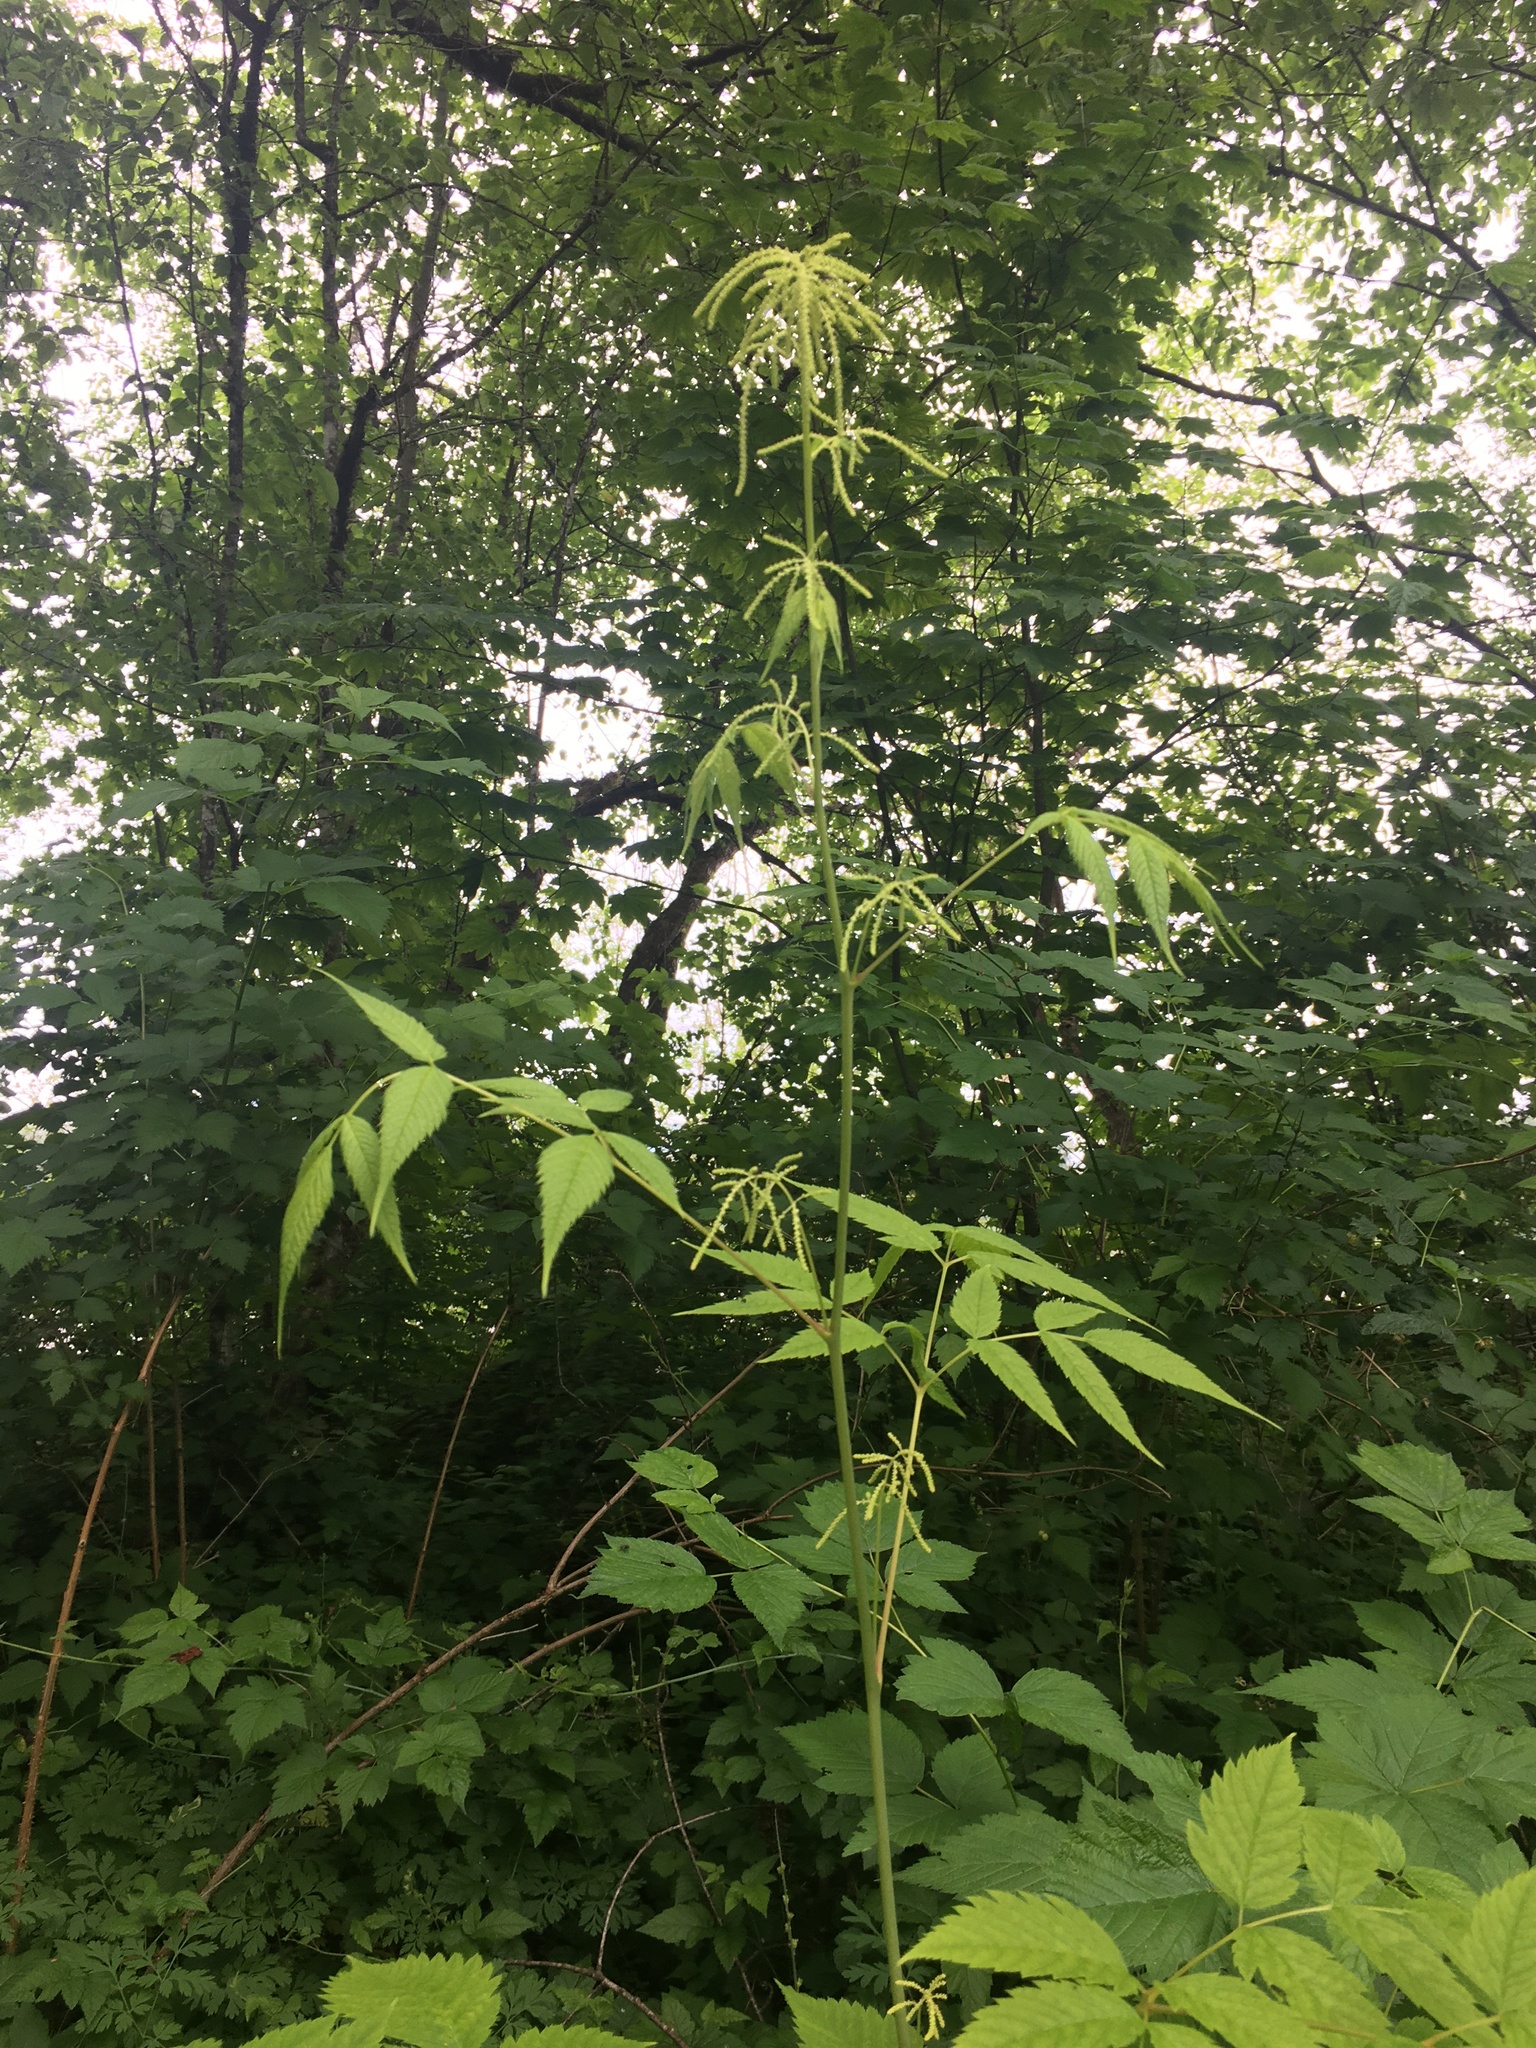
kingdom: Plantae
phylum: Tracheophyta
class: Magnoliopsida
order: Rosales
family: Rosaceae
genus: Aruncus
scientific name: Aruncus dioicus
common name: Buck's-beard
